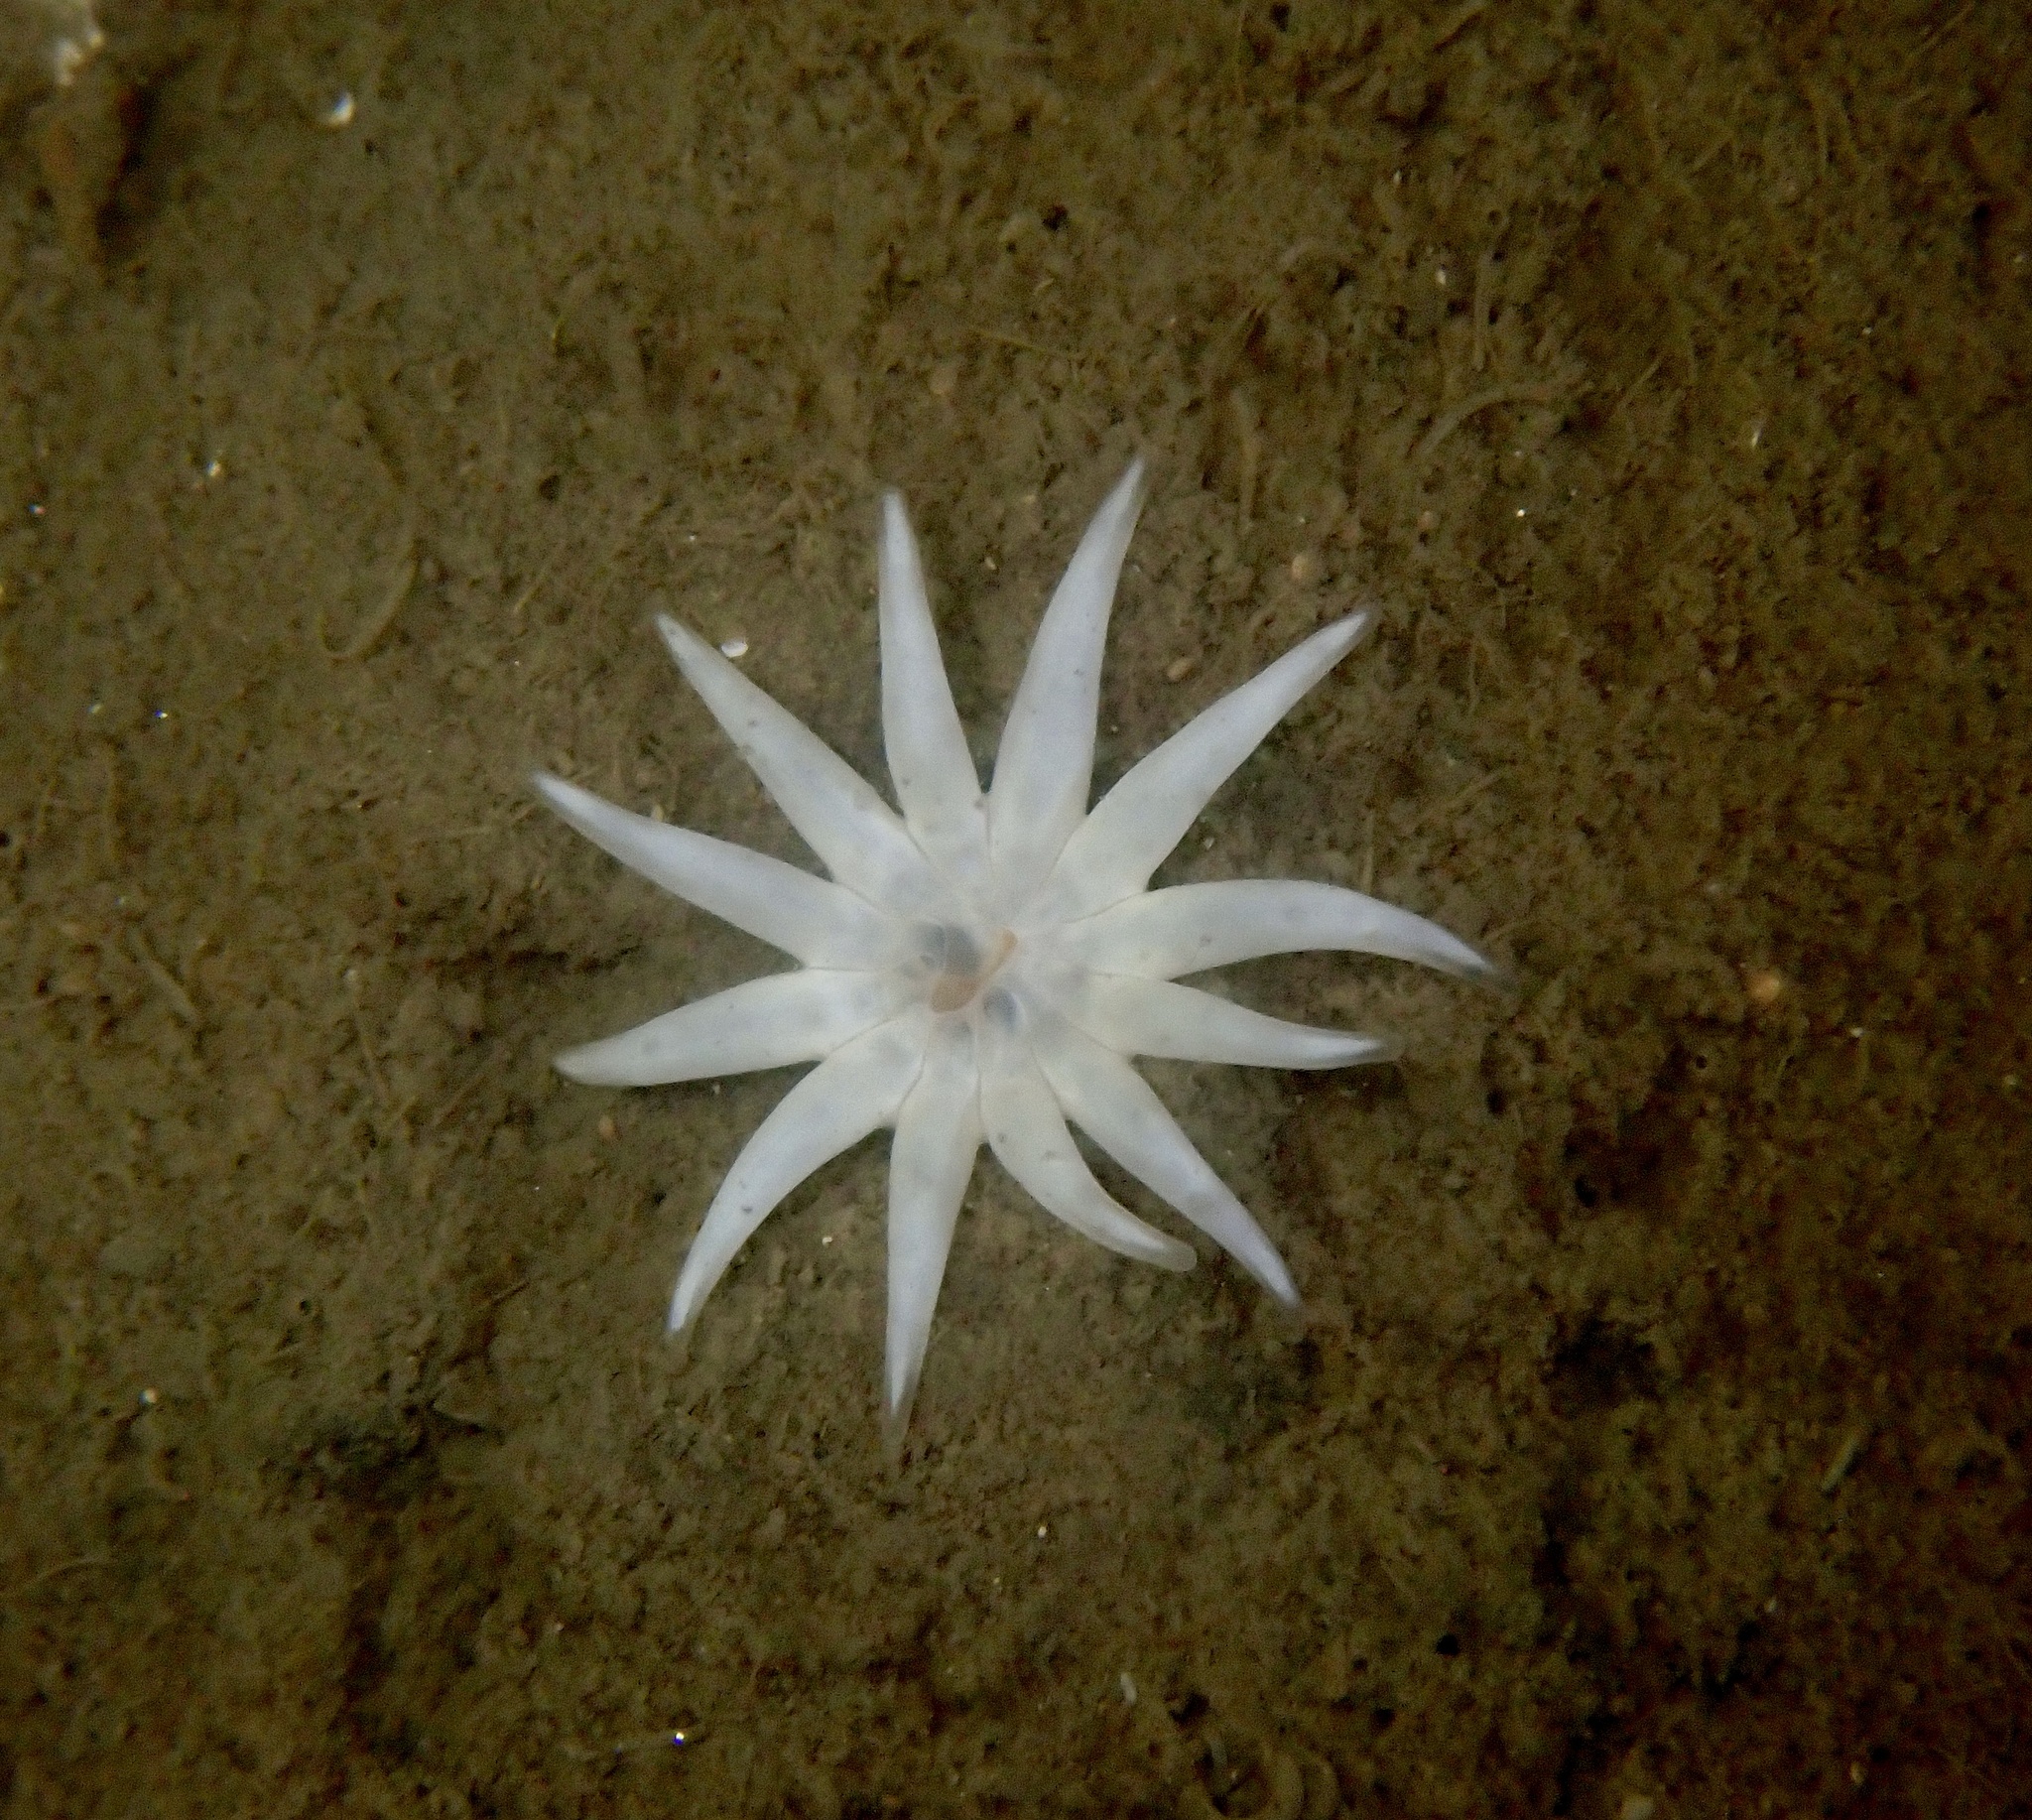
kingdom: Animalia
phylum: Cnidaria
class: Anthozoa
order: Actiniaria
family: Halcampidae
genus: Halcampa
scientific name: Halcampa chrysanthellum
